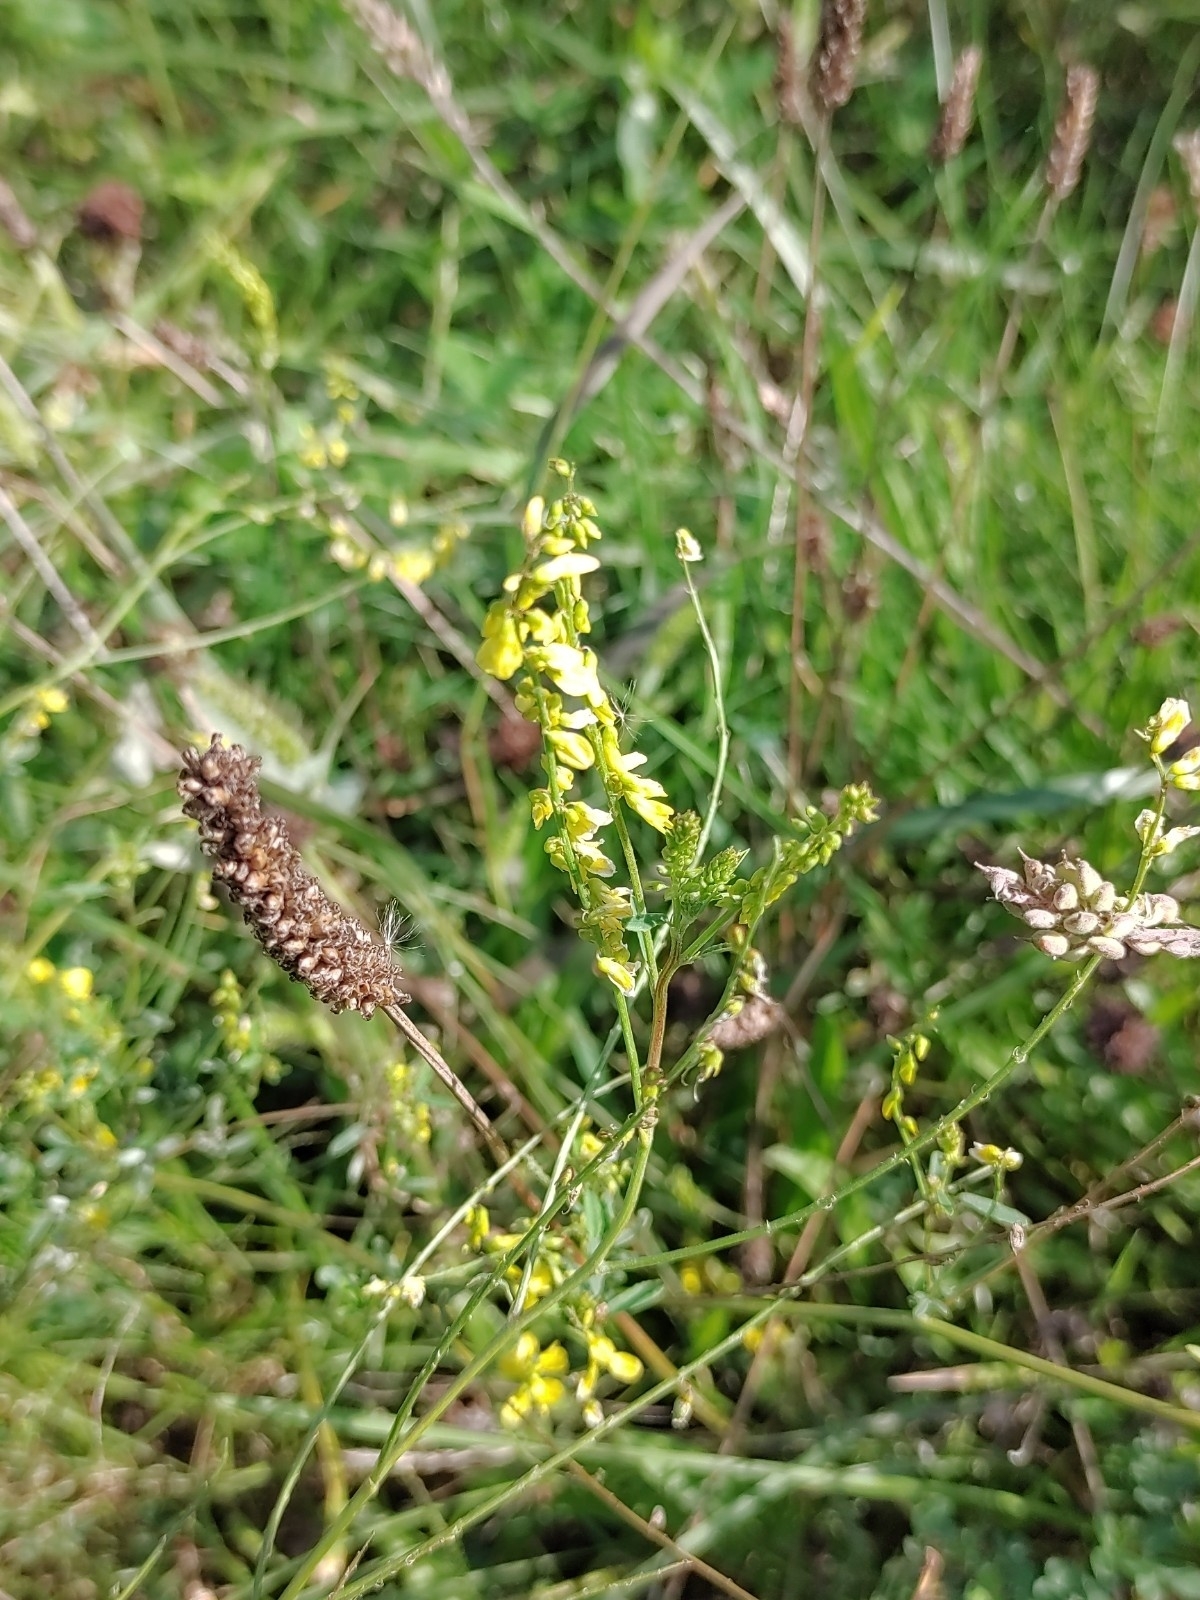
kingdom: Plantae
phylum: Tracheophyta
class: Magnoliopsida
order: Fabales
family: Fabaceae
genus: Melilotus
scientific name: Melilotus officinalis
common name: Sweetclover
